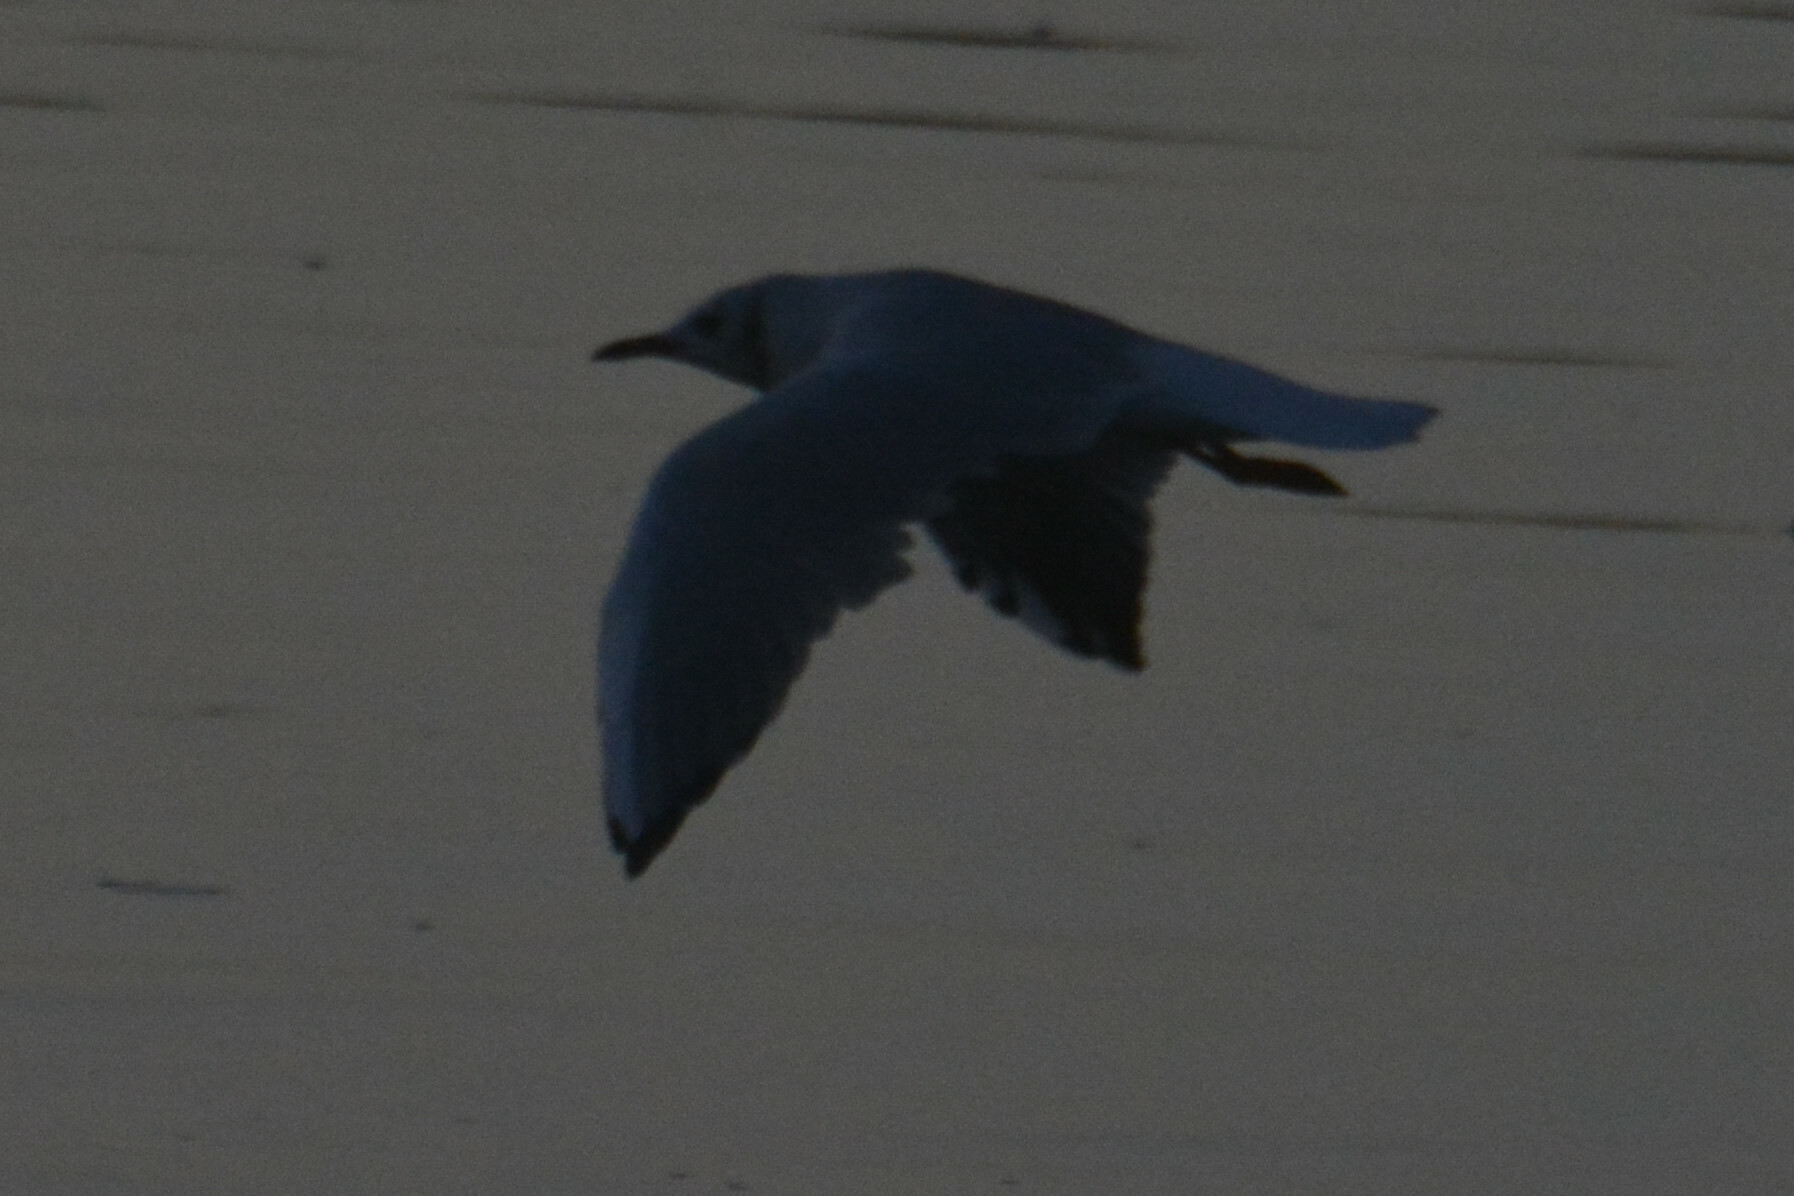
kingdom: Animalia
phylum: Chordata
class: Aves
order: Charadriiformes
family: Laridae
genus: Chroicocephalus
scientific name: Chroicocephalus ridibundus
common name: Black-headed gull
